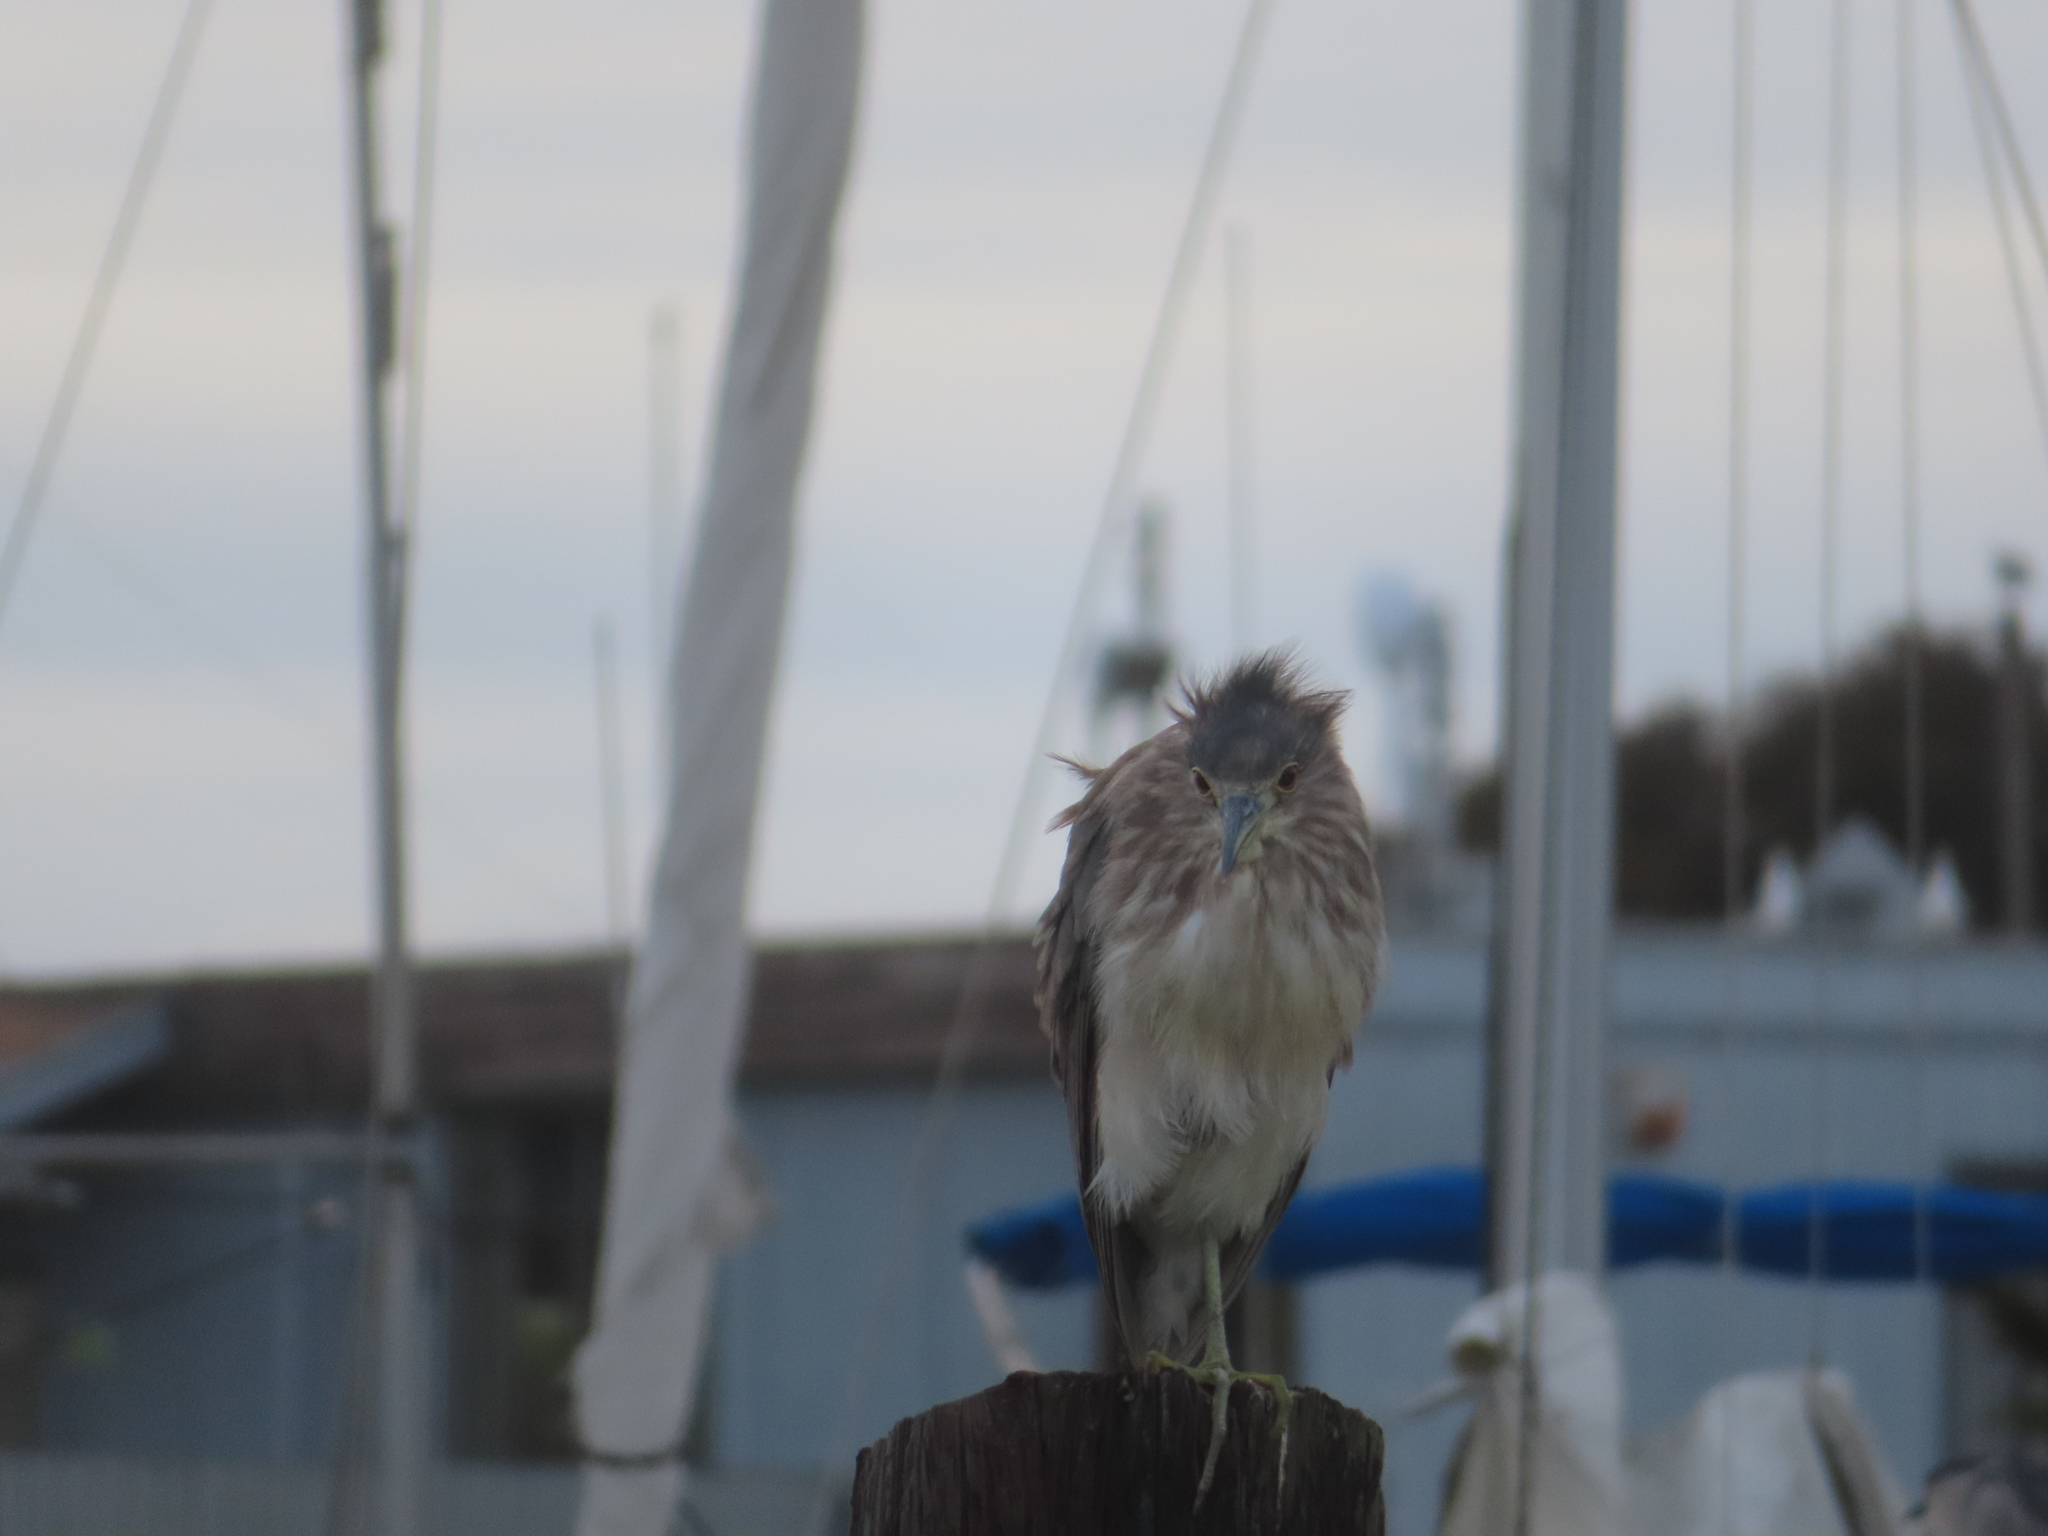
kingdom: Animalia
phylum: Chordata
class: Aves
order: Pelecaniformes
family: Ardeidae
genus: Nycticorax
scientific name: Nycticorax nycticorax
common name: Black-crowned night heron
